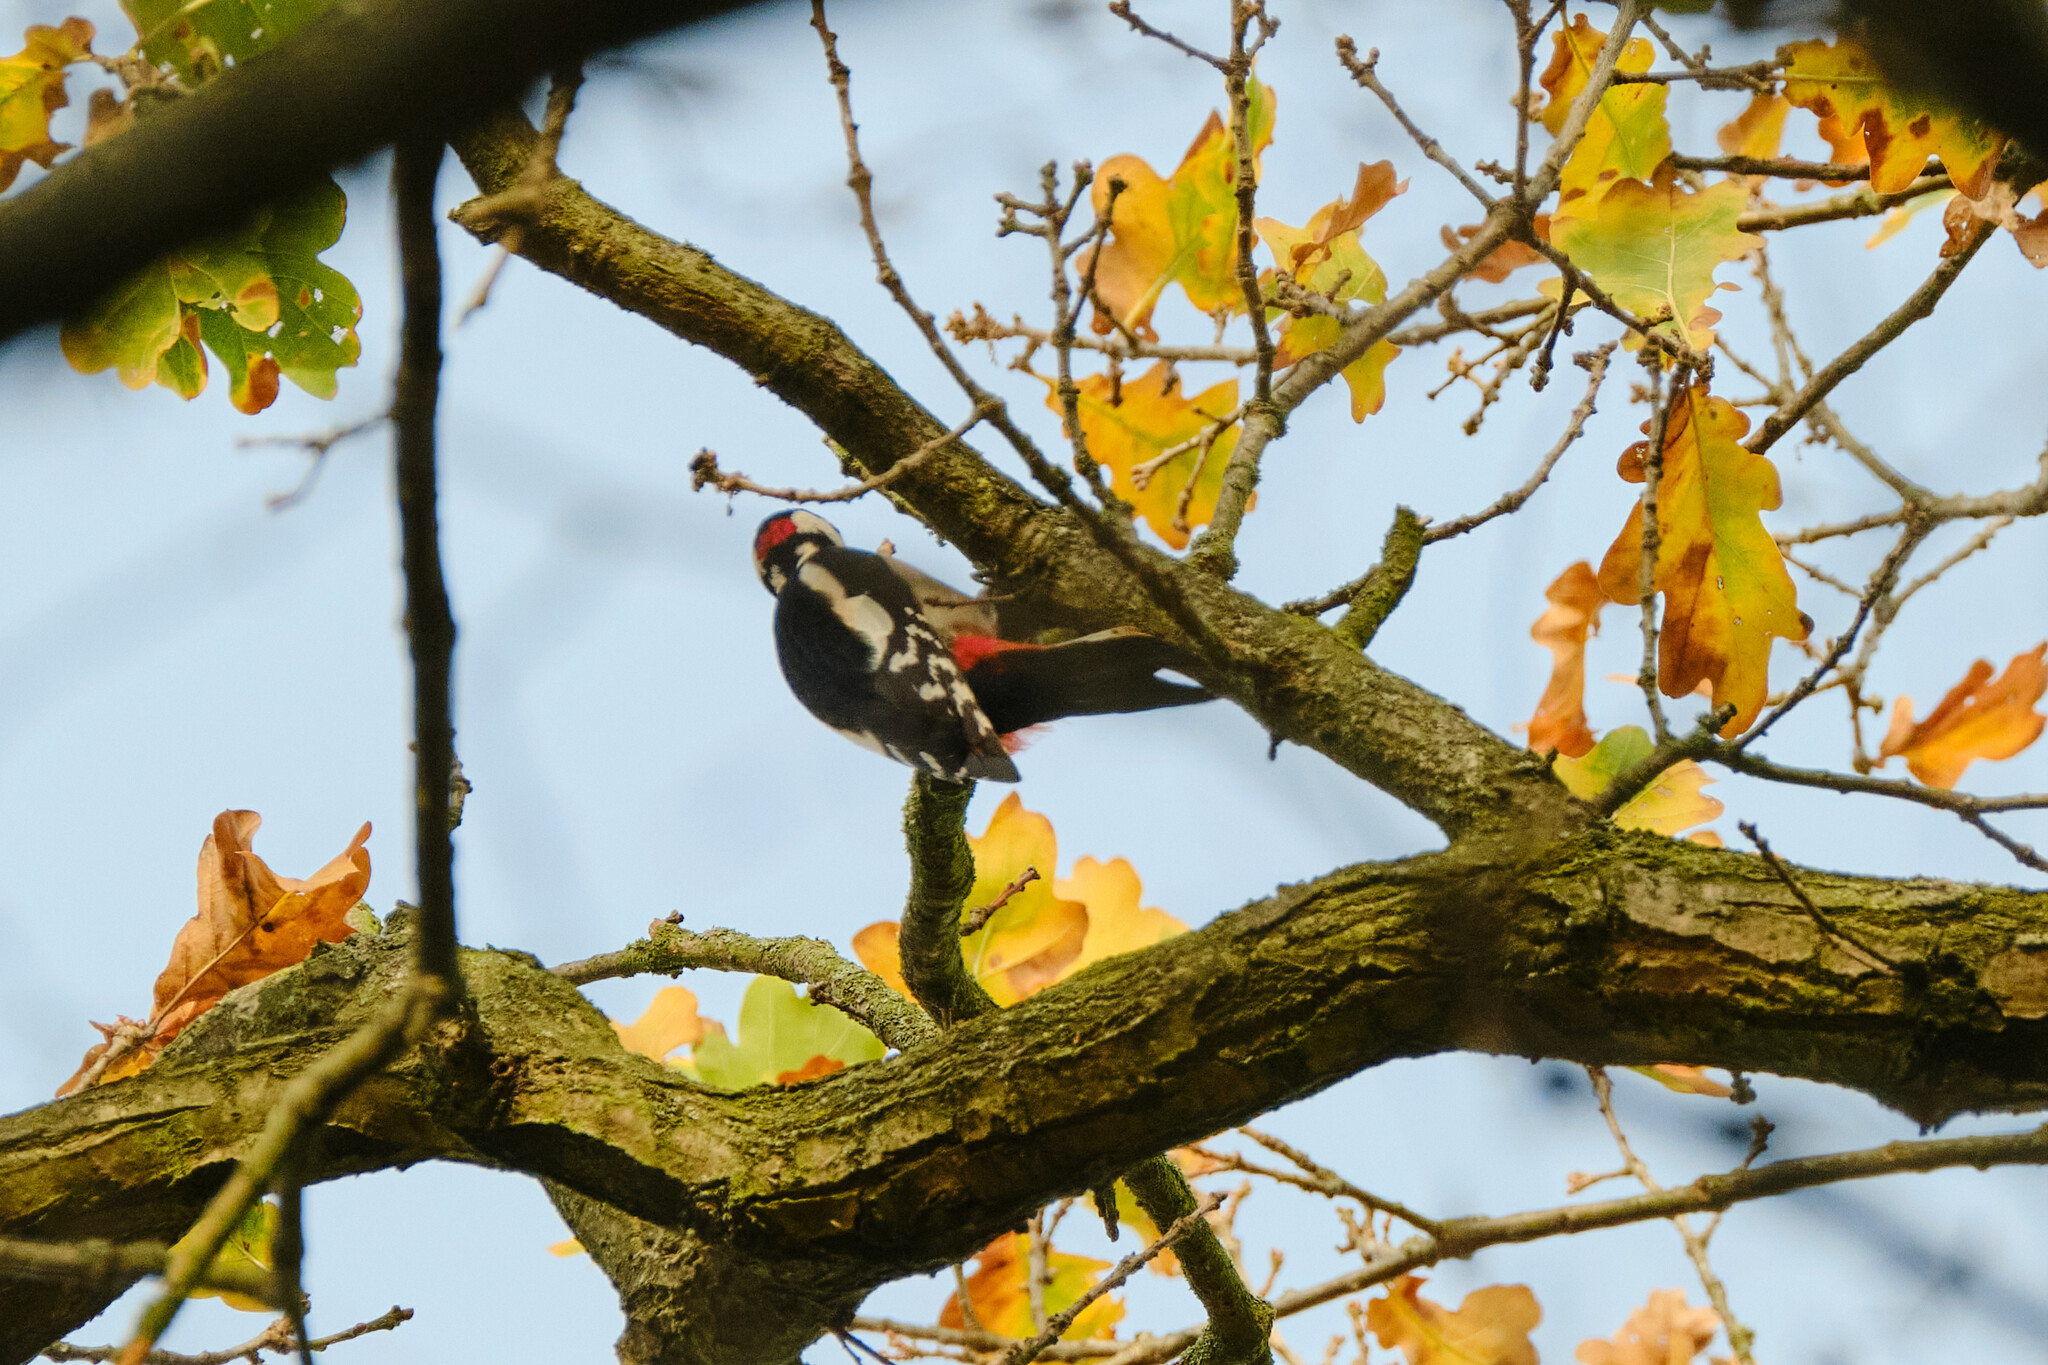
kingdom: Animalia
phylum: Chordata
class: Aves
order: Piciformes
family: Picidae
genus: Dendrocopos
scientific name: Dendrocopos major
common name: Great spotted woodpecker
